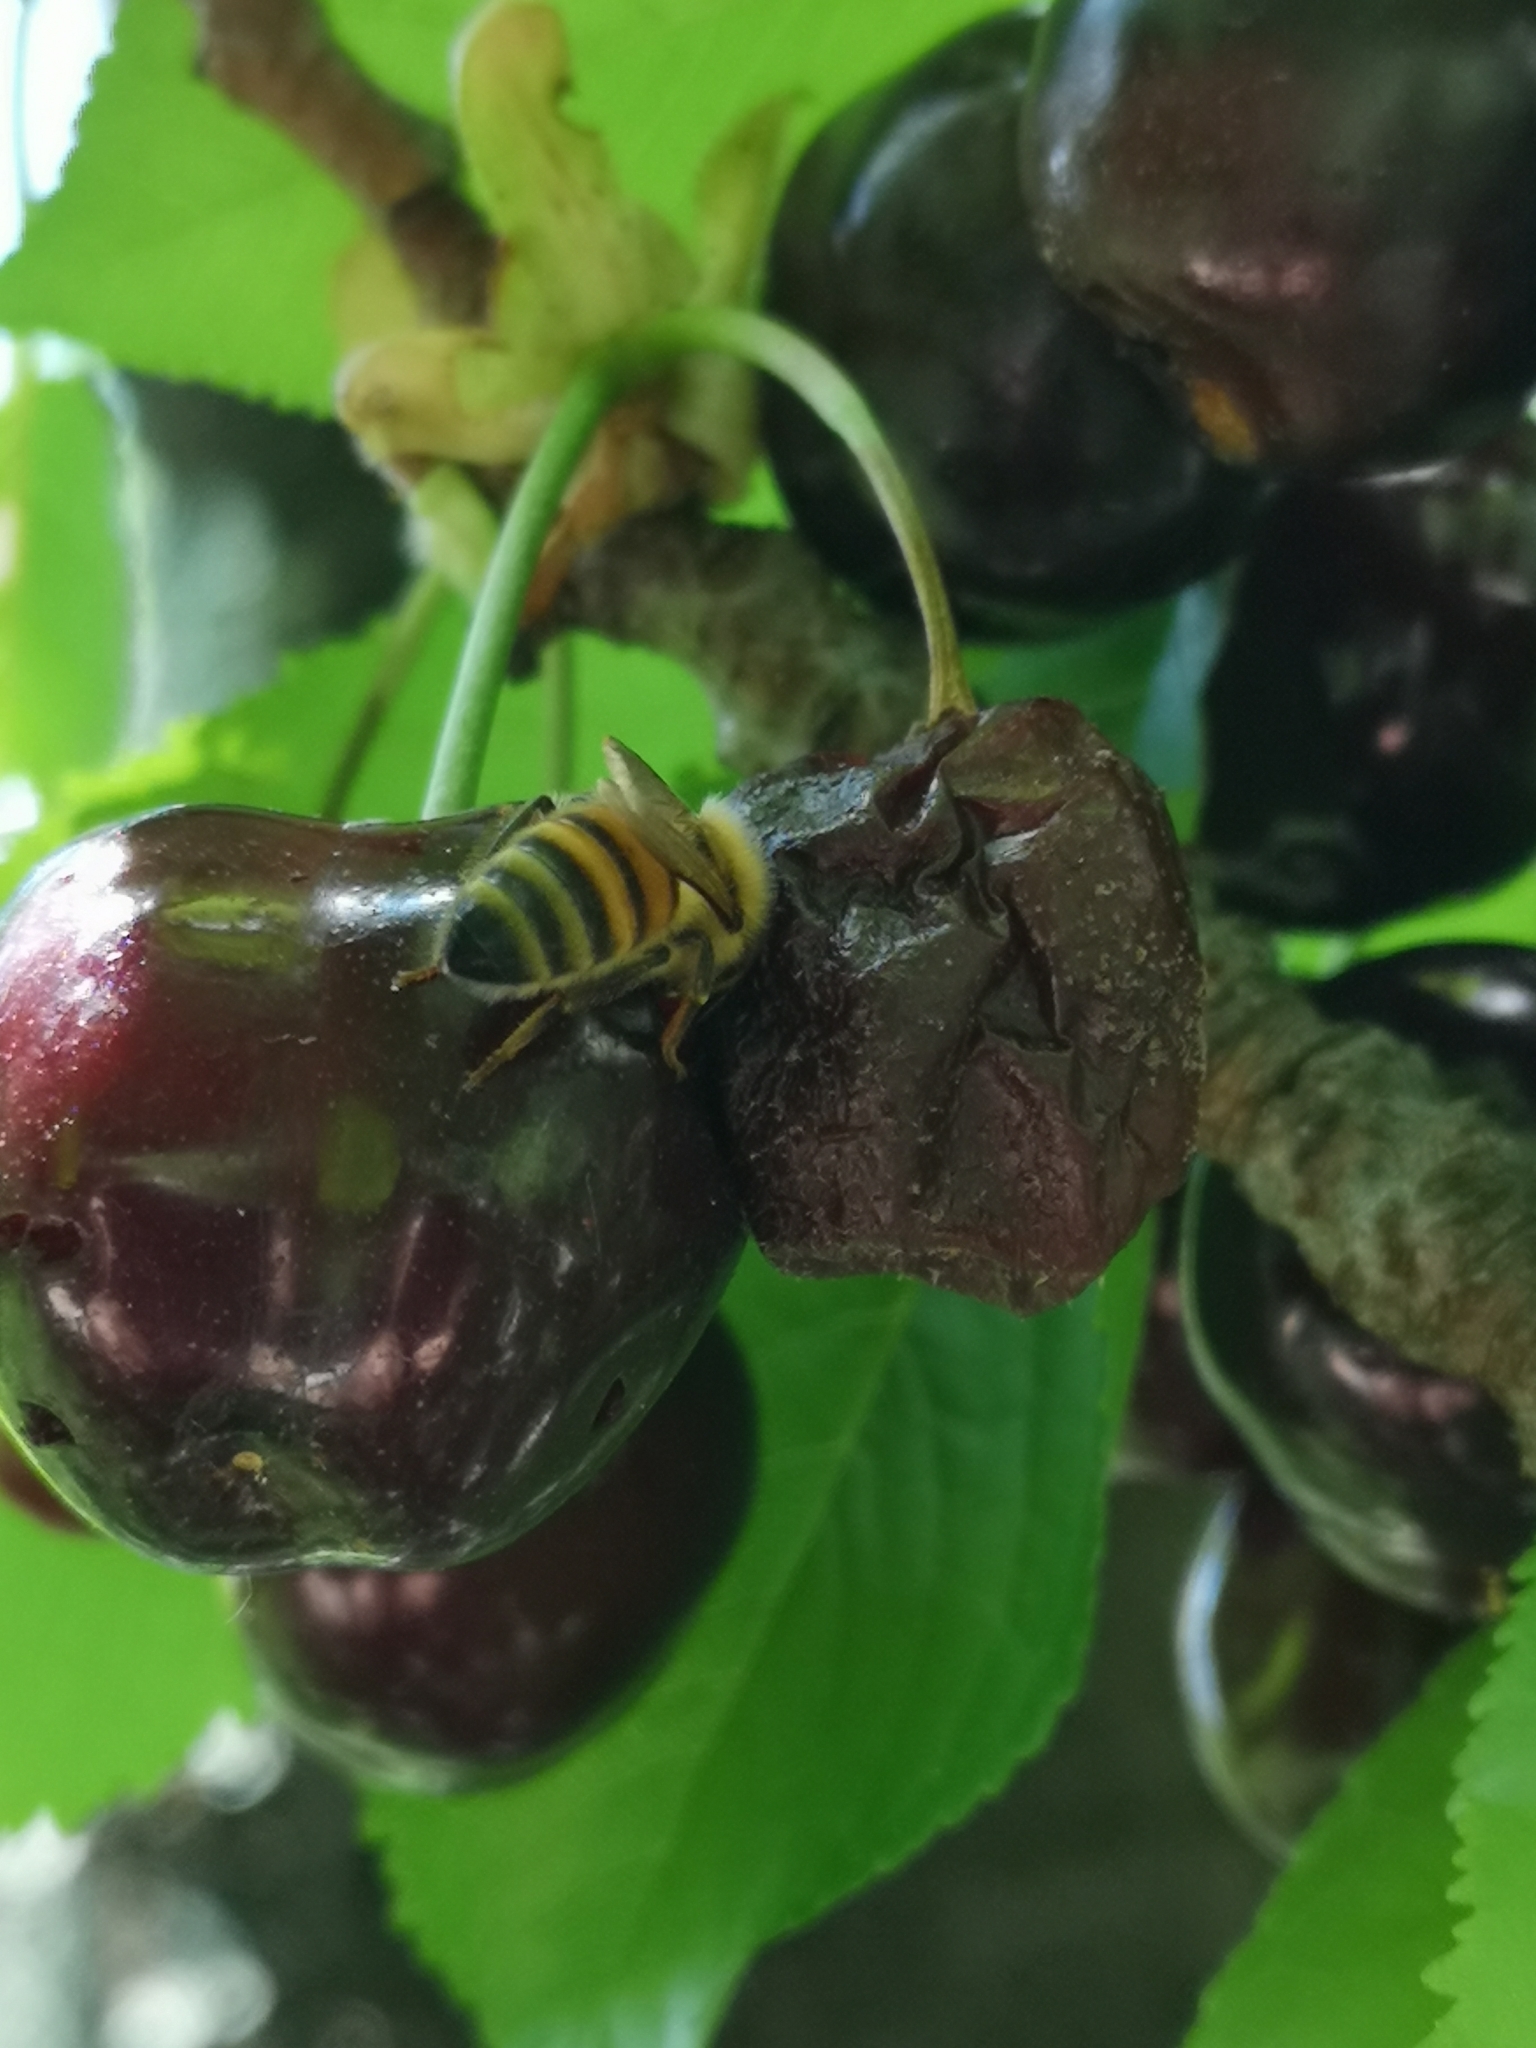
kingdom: Animalia
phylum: Arthropoda
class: Insecta
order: Hymenoptera
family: Apidae
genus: Apis
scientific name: Apis mellifera
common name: Honey bee
